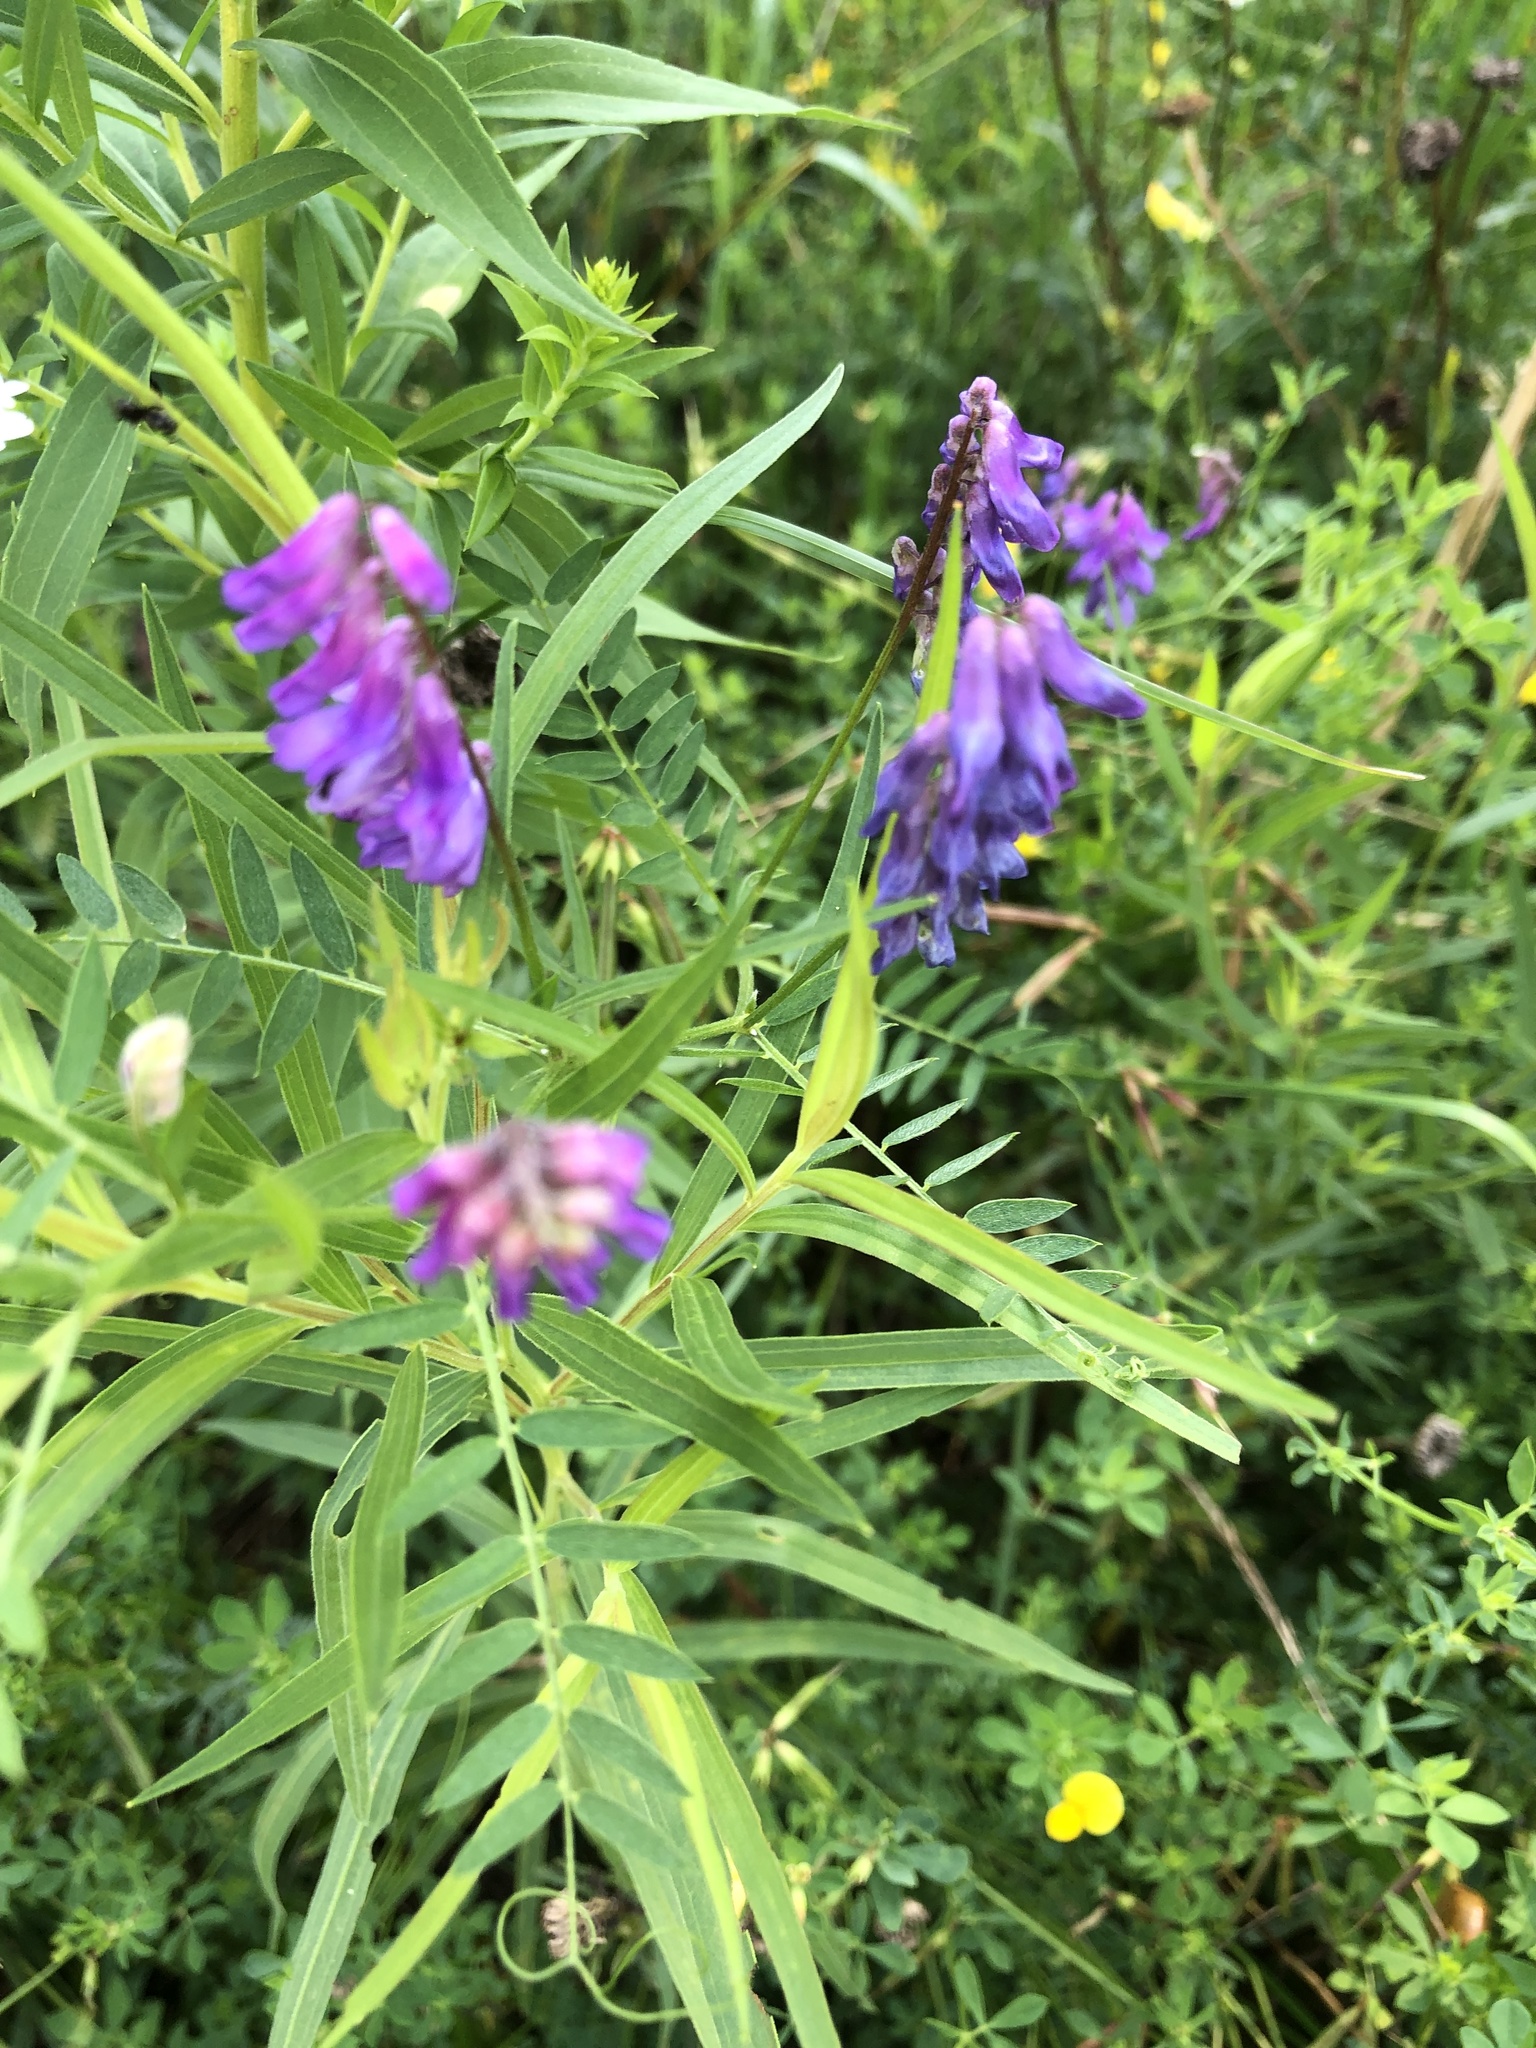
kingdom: Plantae
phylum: Tracheophyta
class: Magnoliopsida
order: Fabales
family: Fabaceae
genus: Vicia
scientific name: Vicia cracca
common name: Bird vetch
